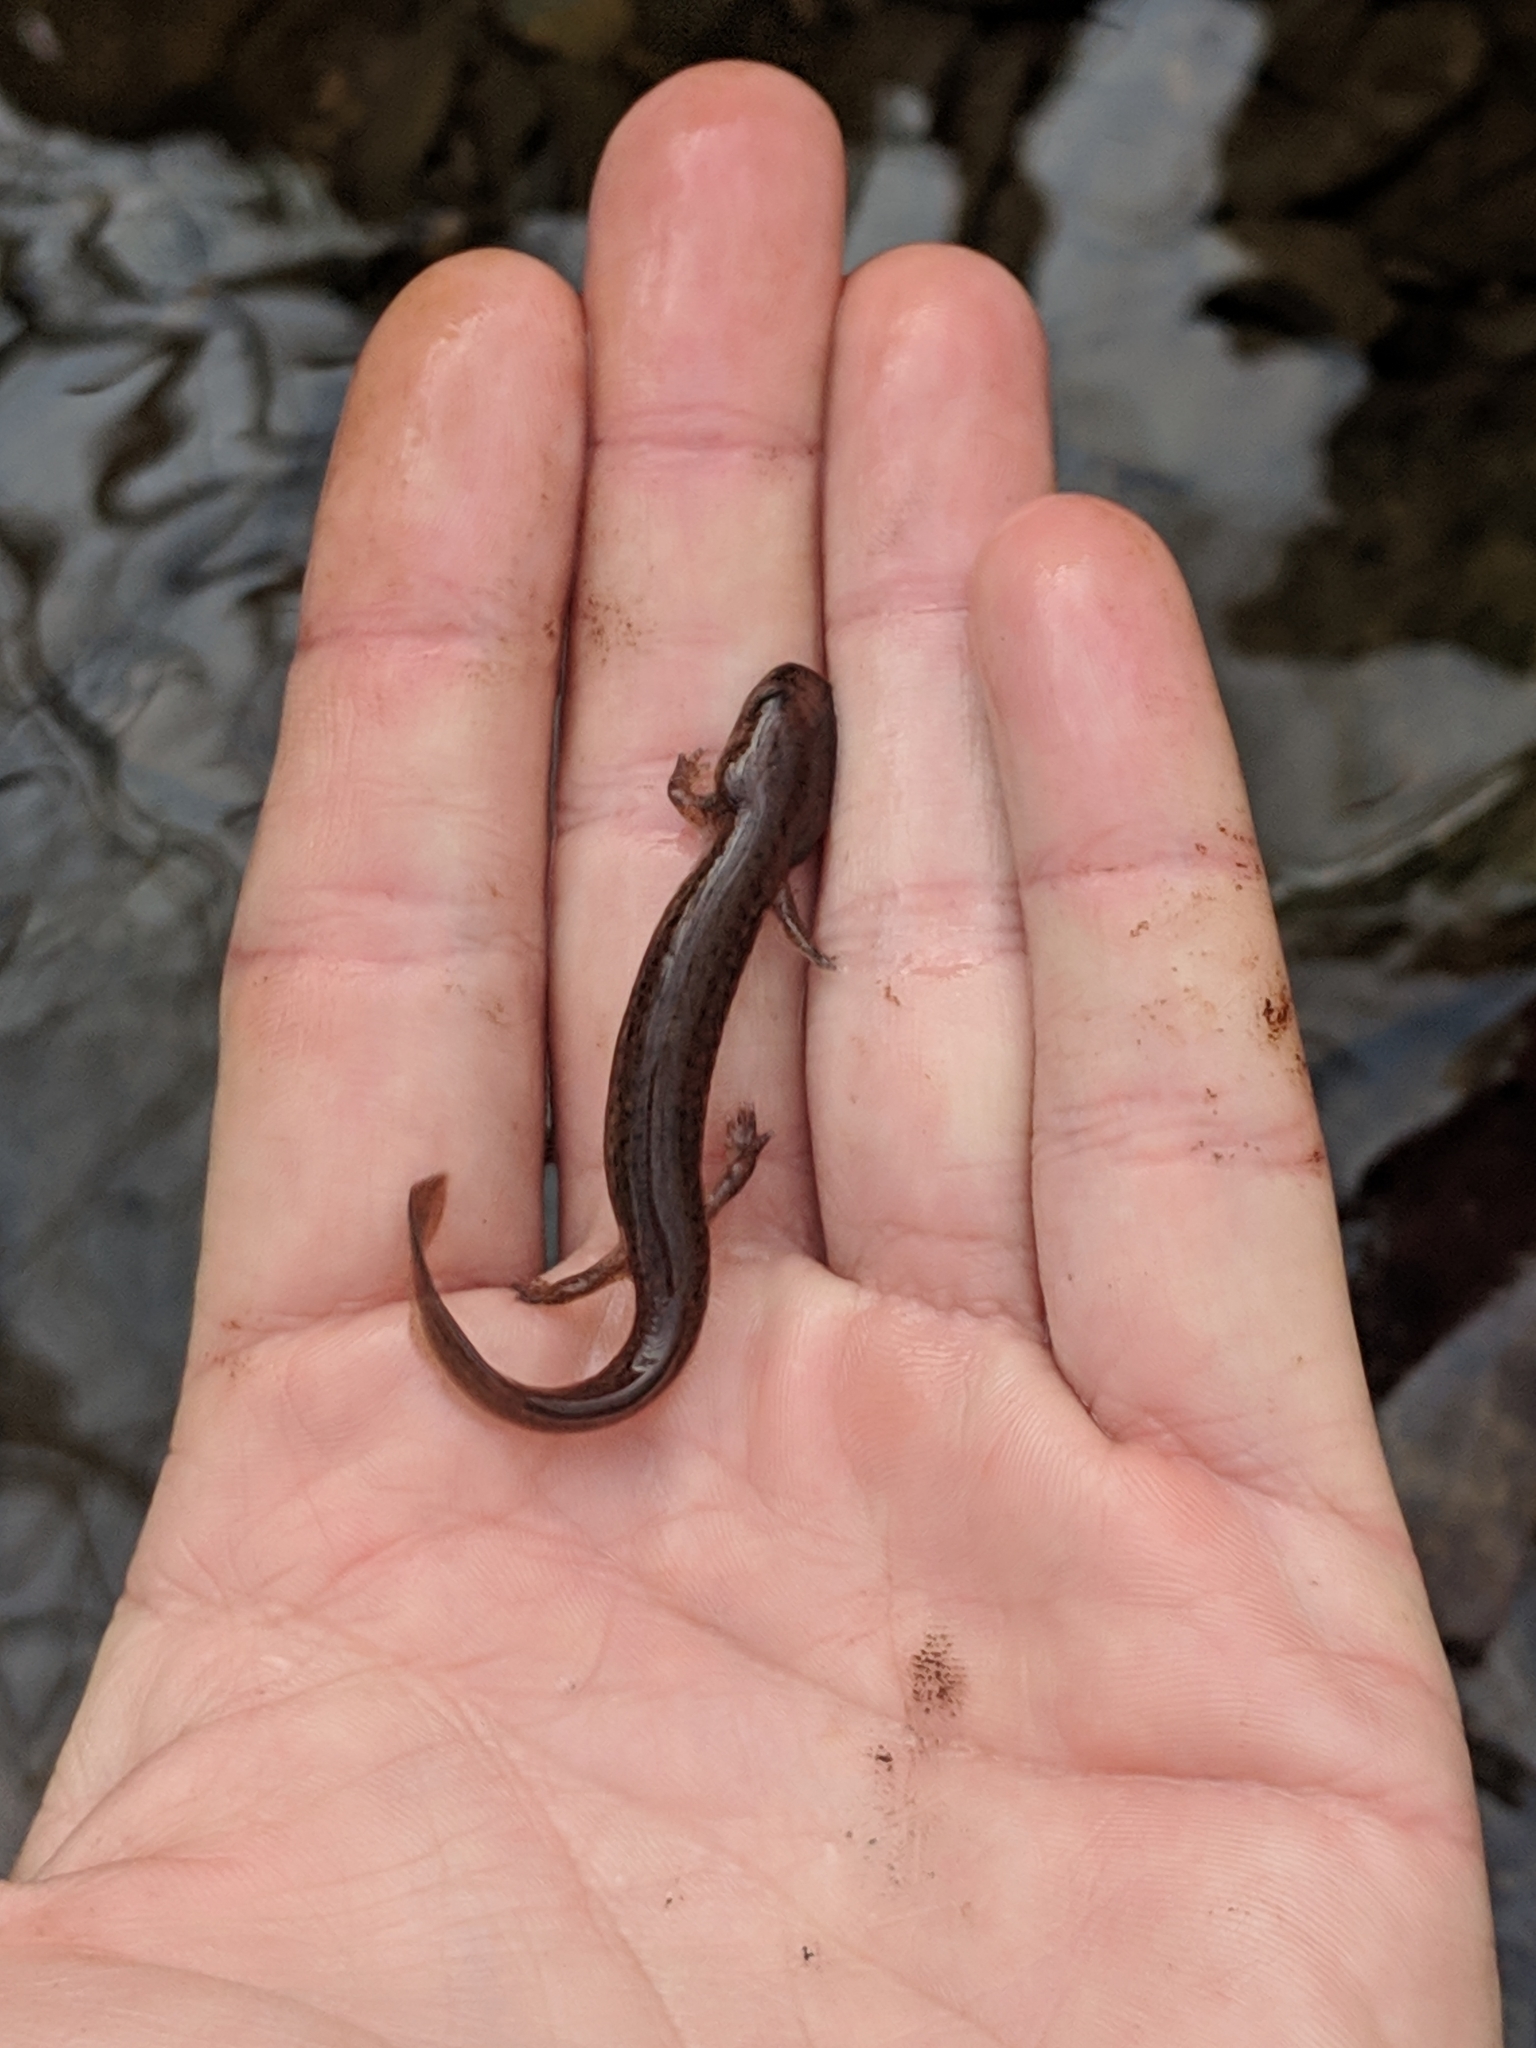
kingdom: Animalia
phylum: Chordata
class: Amphibia
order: Caudata
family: Plethodontidae
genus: Pseudotriton
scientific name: Pseudotriton ruber
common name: Red salamander
